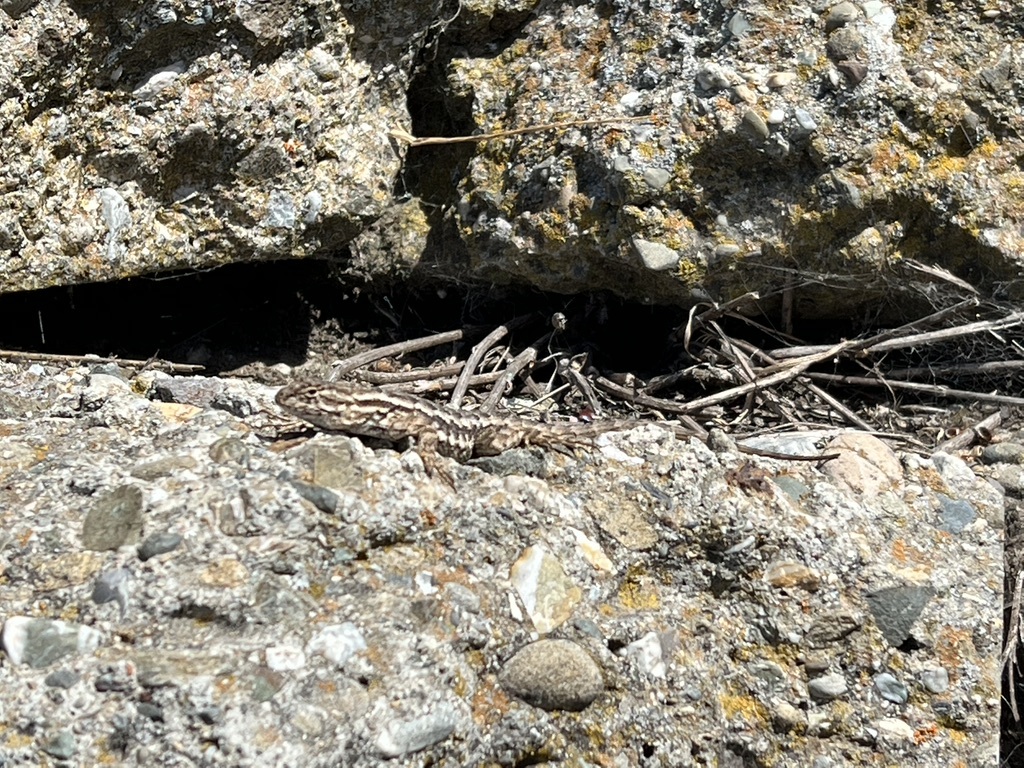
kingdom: Animalia
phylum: Chordata
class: Squamata
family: Phrynosomatidae
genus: Sceloporus
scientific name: Sceloporus occidentalis
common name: Western fence lizard
